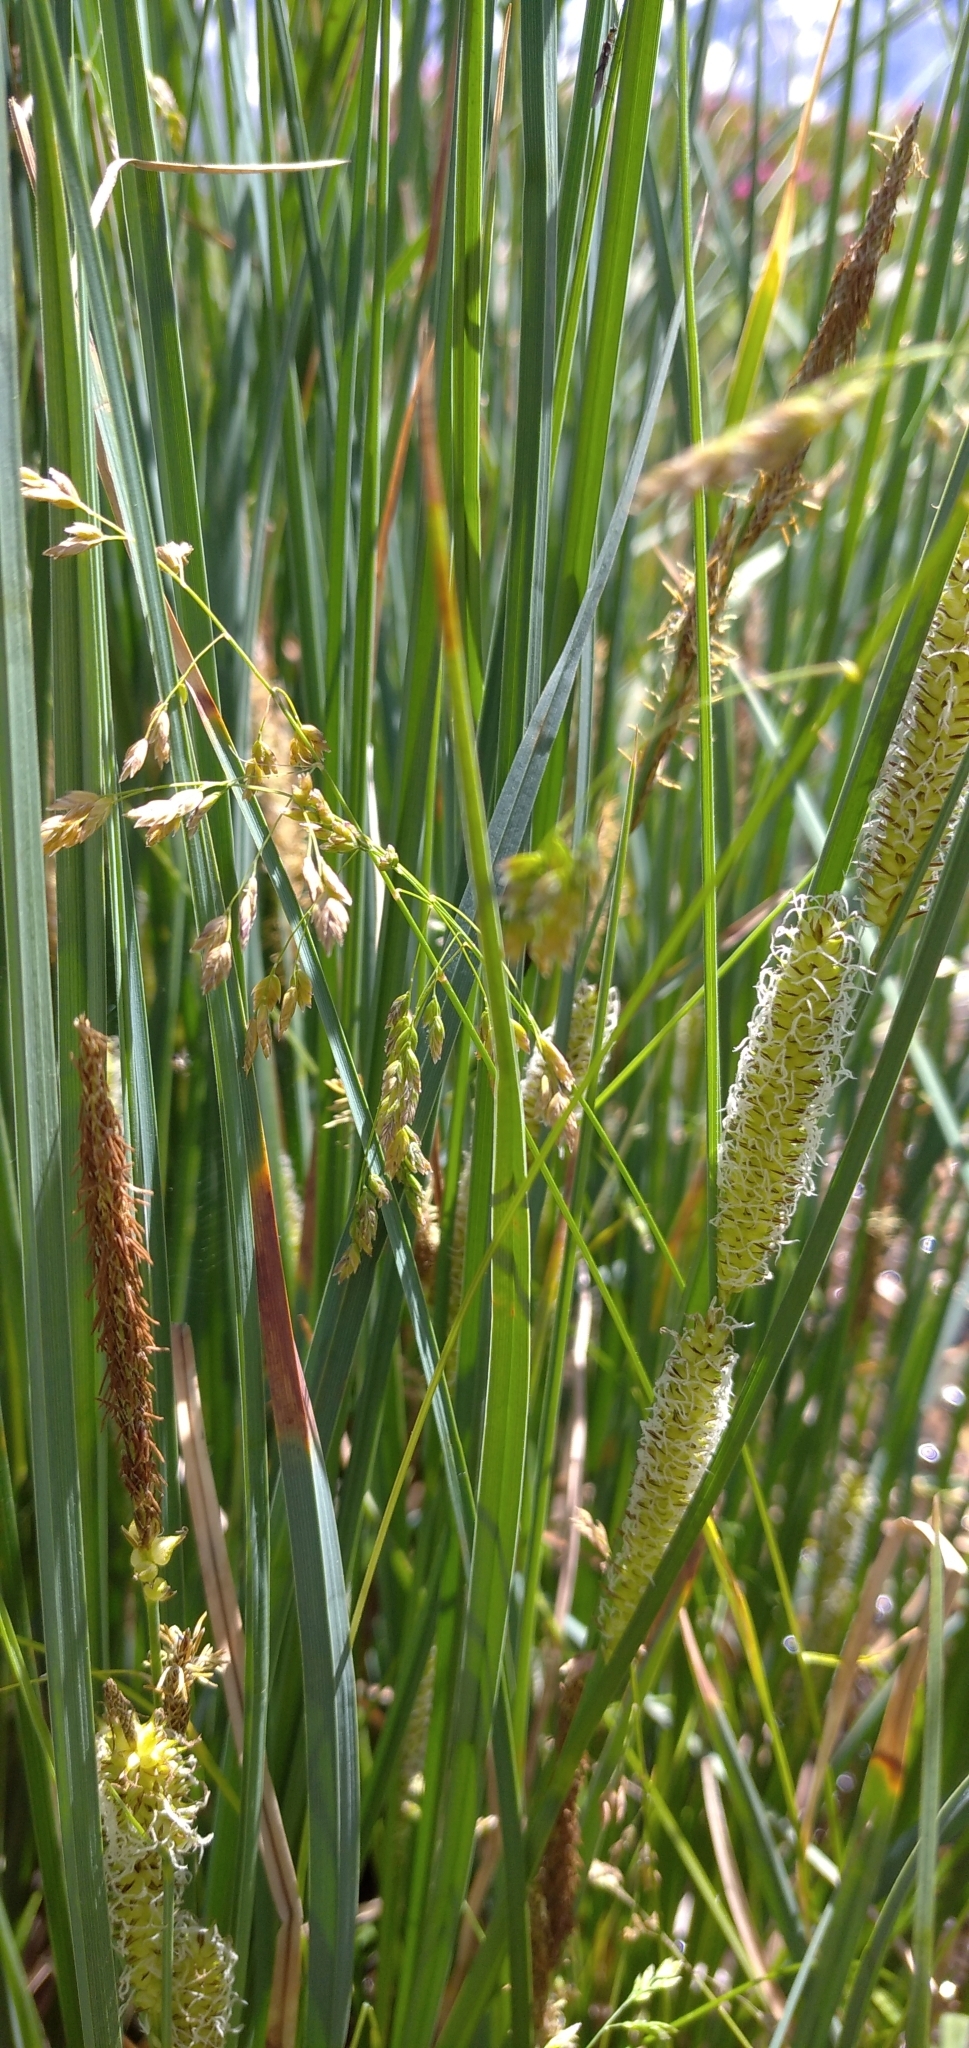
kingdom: Plantae
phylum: Tracheophyta
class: Liliopsida
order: Poales
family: Cyperaceae
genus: Carex
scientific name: Carex rostrata
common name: Bottle sedge
